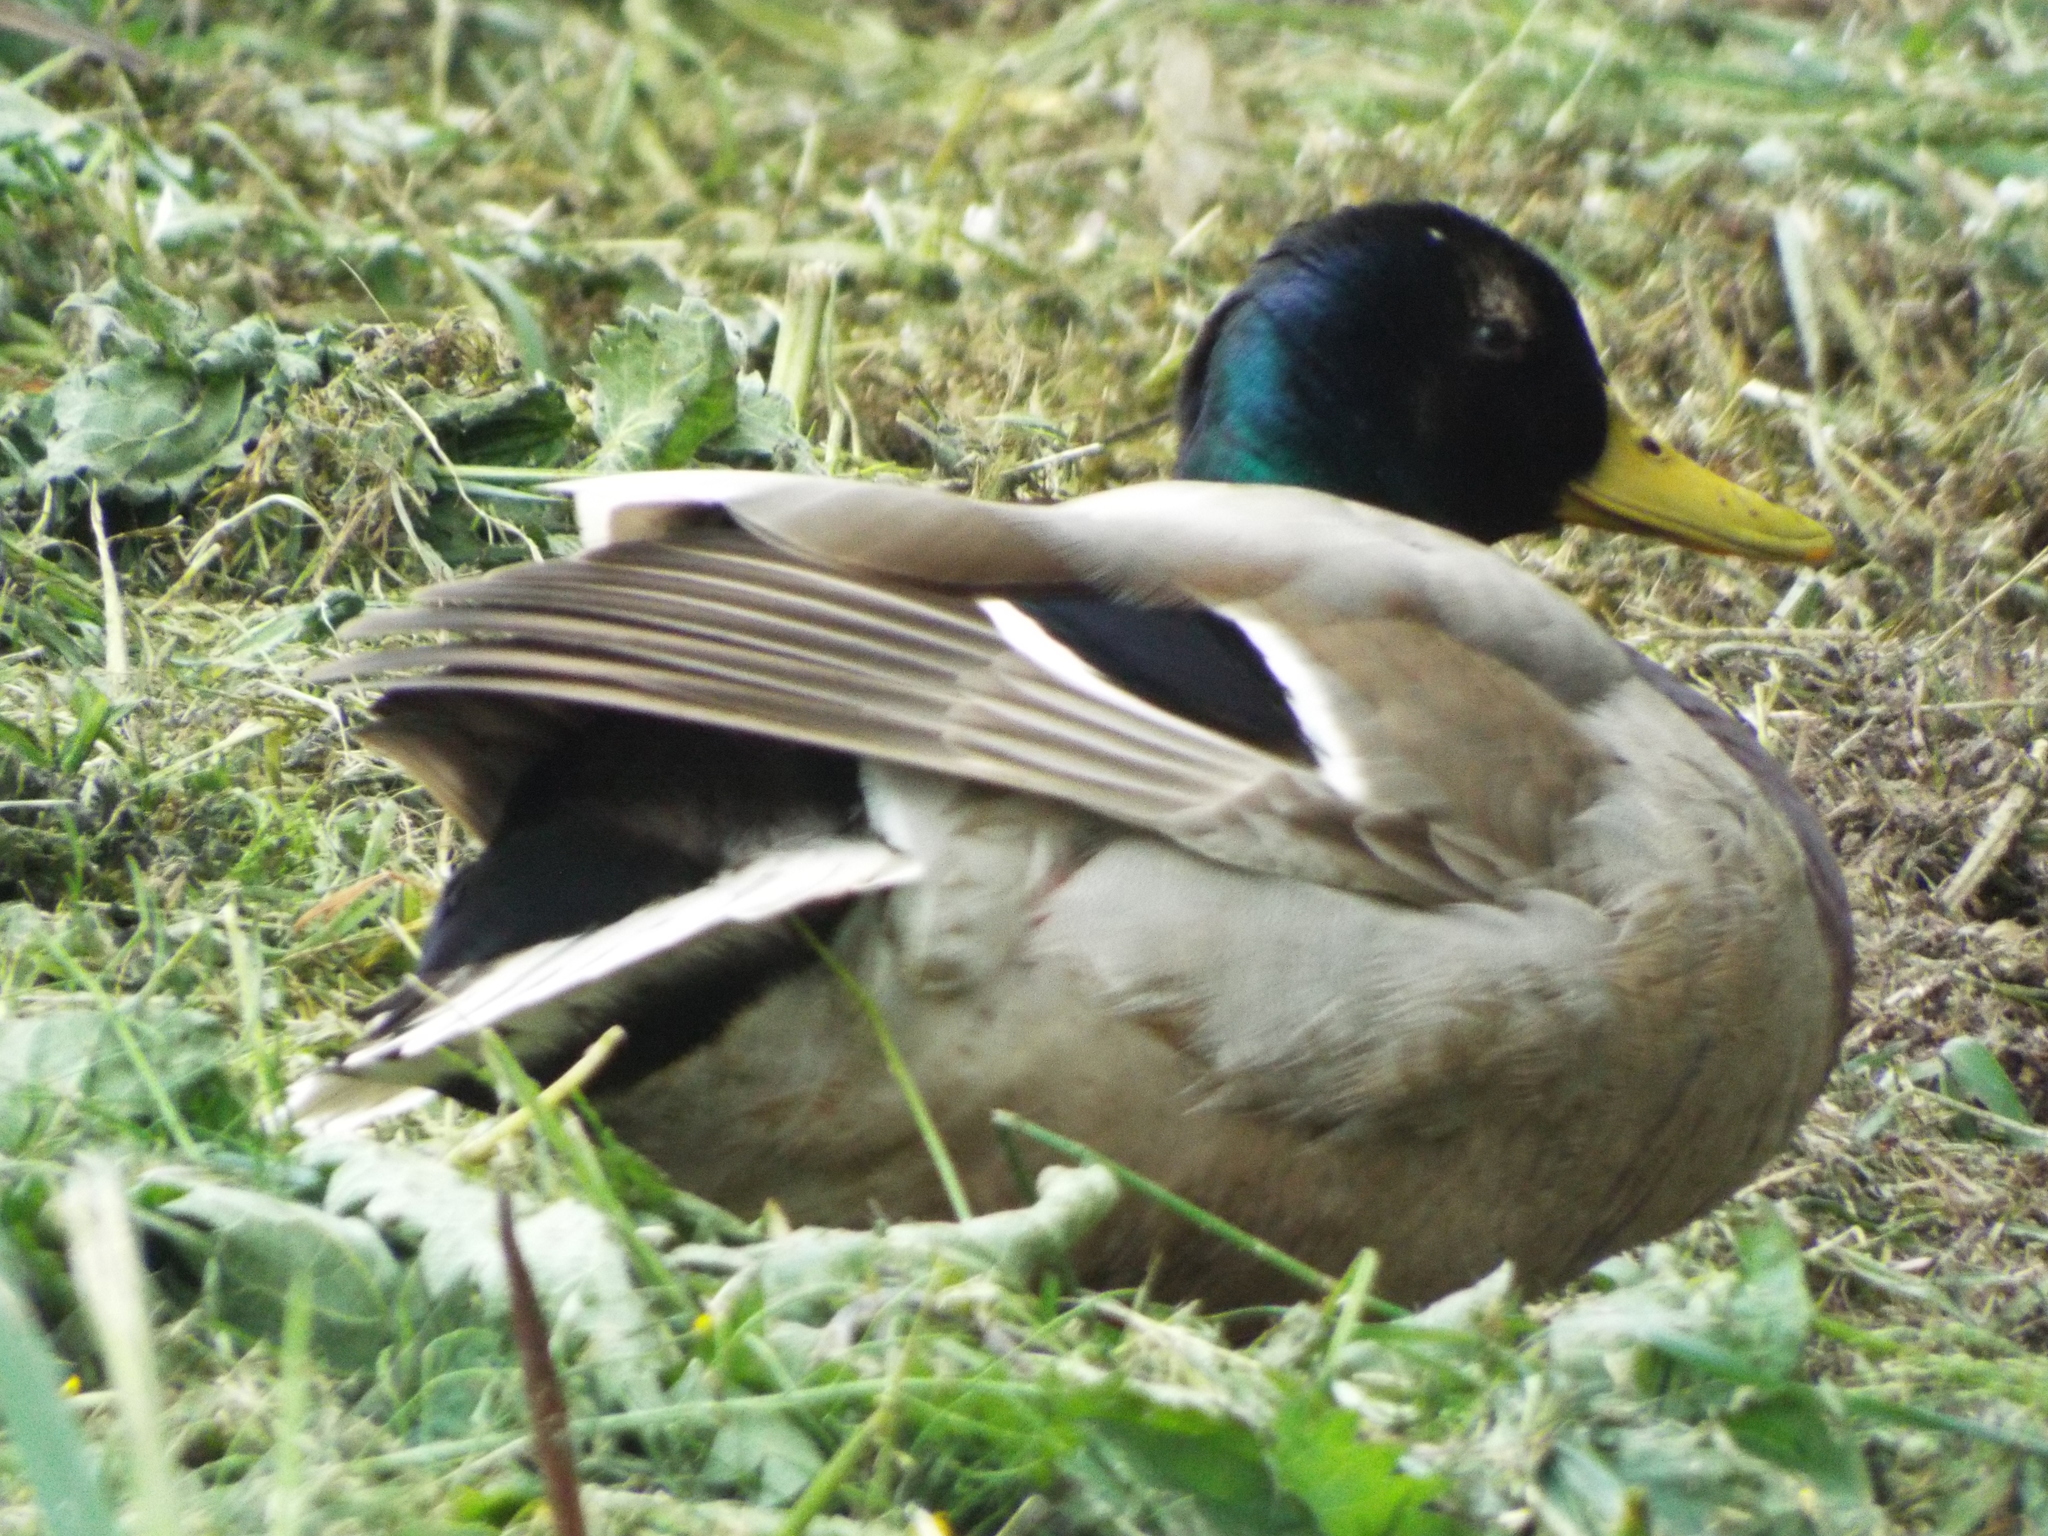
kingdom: Animalia
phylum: Chordata
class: Aves
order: Anseriformes
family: Anatidae
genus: Anas
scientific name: Anas platyrhynchos
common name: Mallard
